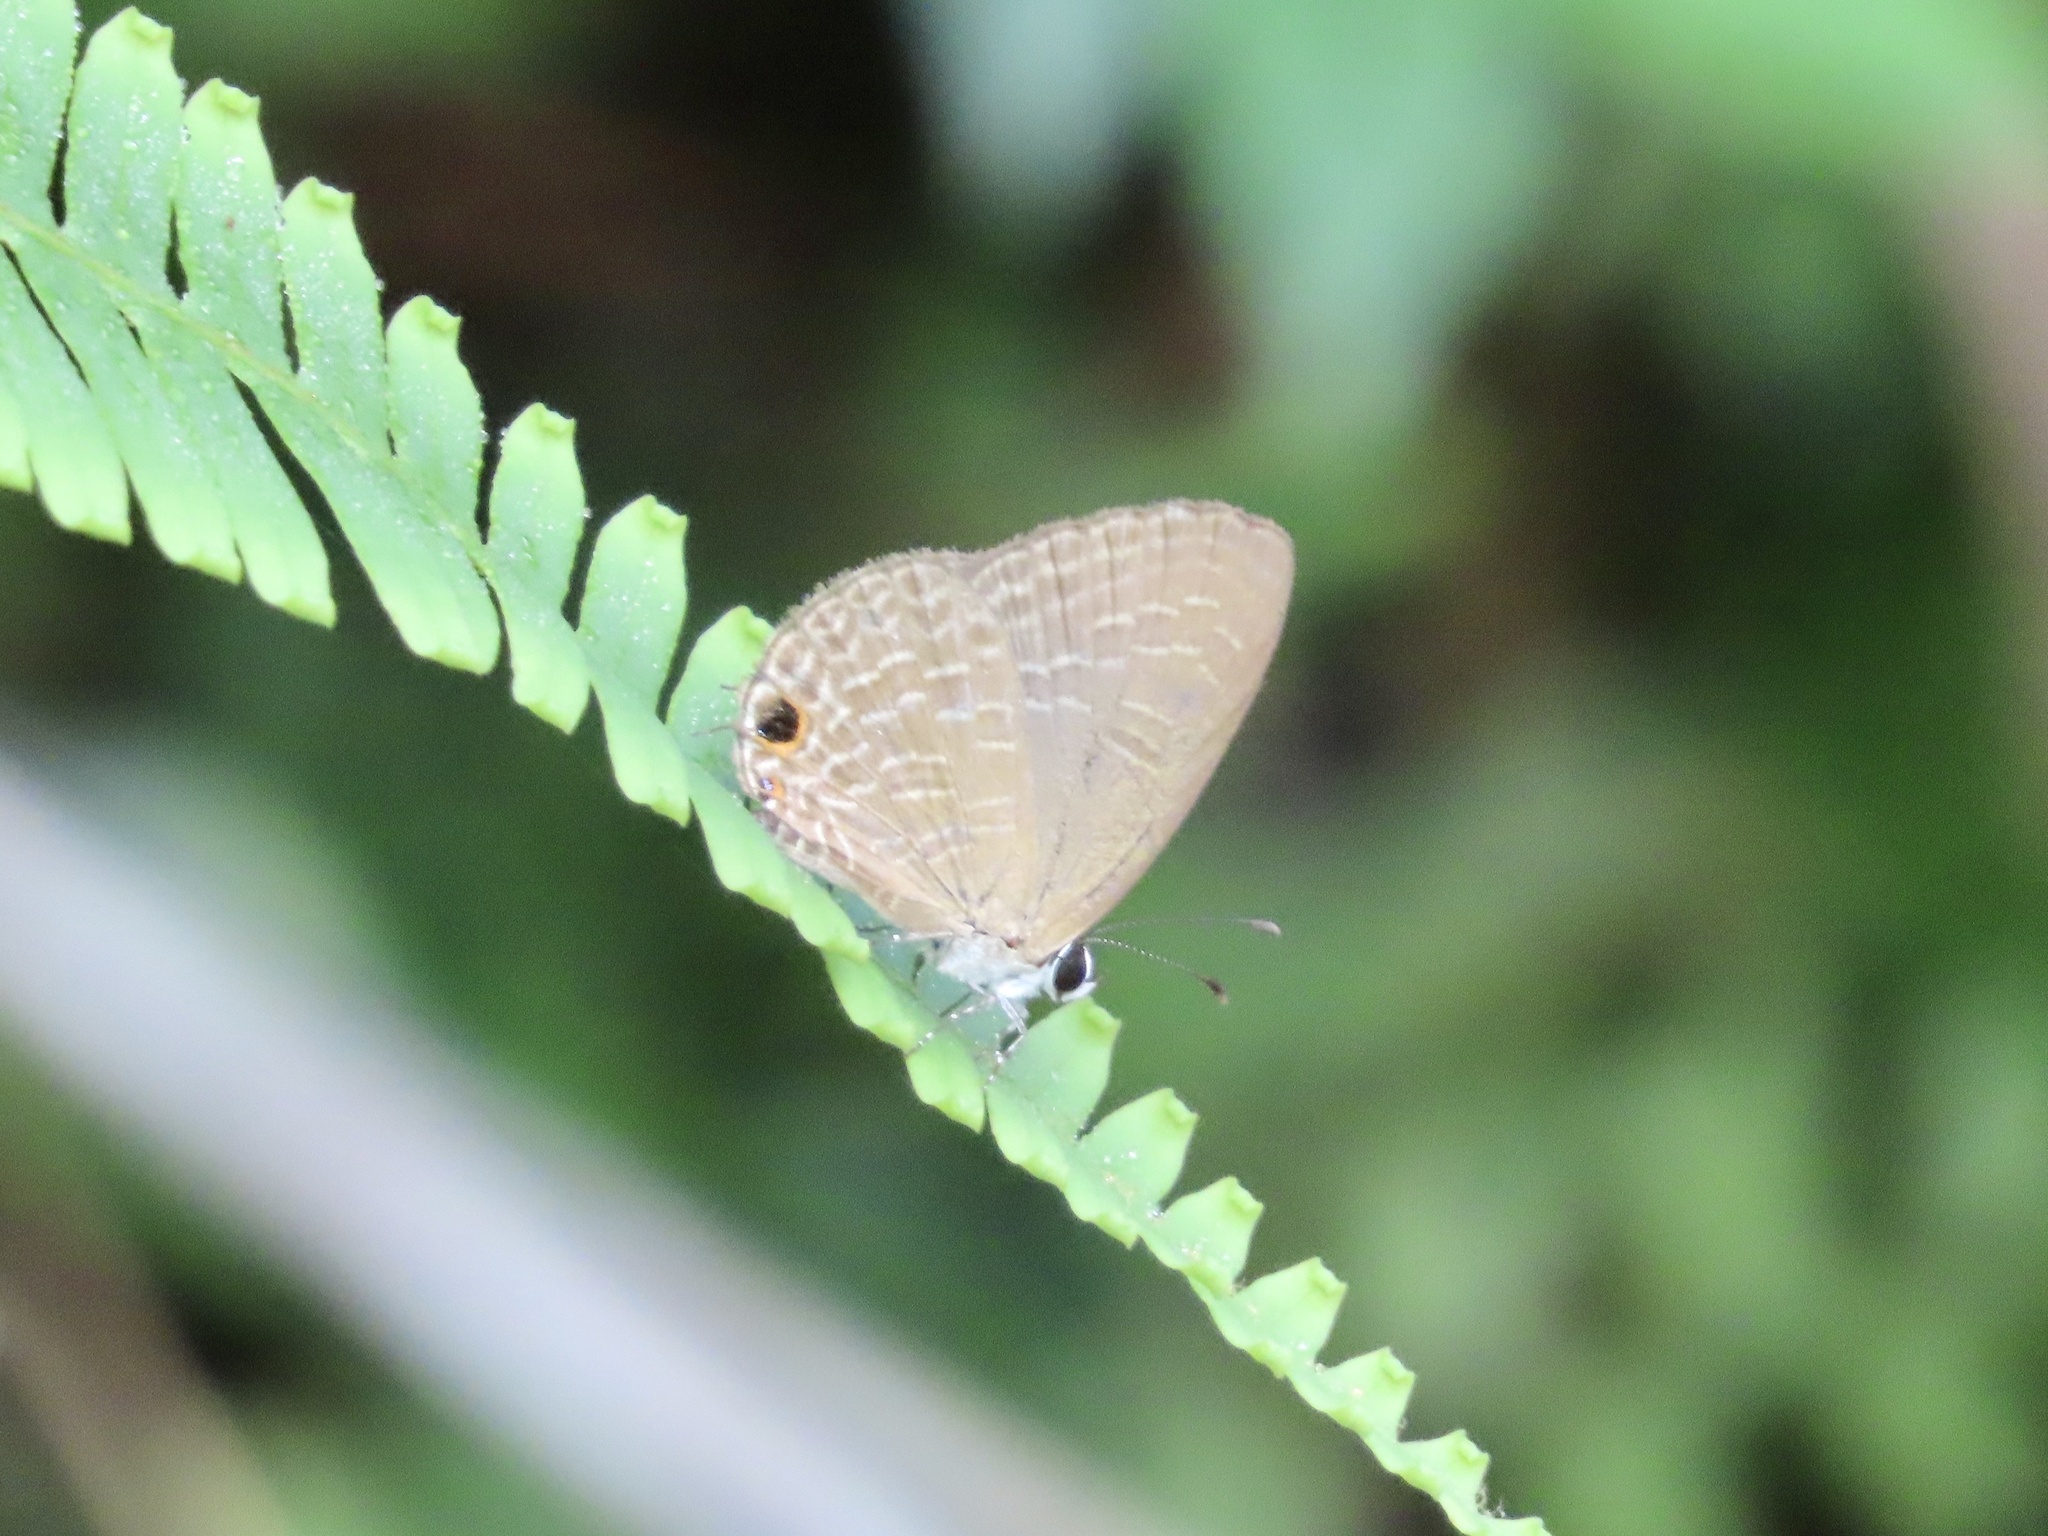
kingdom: Animalia
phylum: Arthropoda
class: Insecta
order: Lepidoptera
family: Lycaenidae
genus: Jamides
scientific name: Jamides bochus
